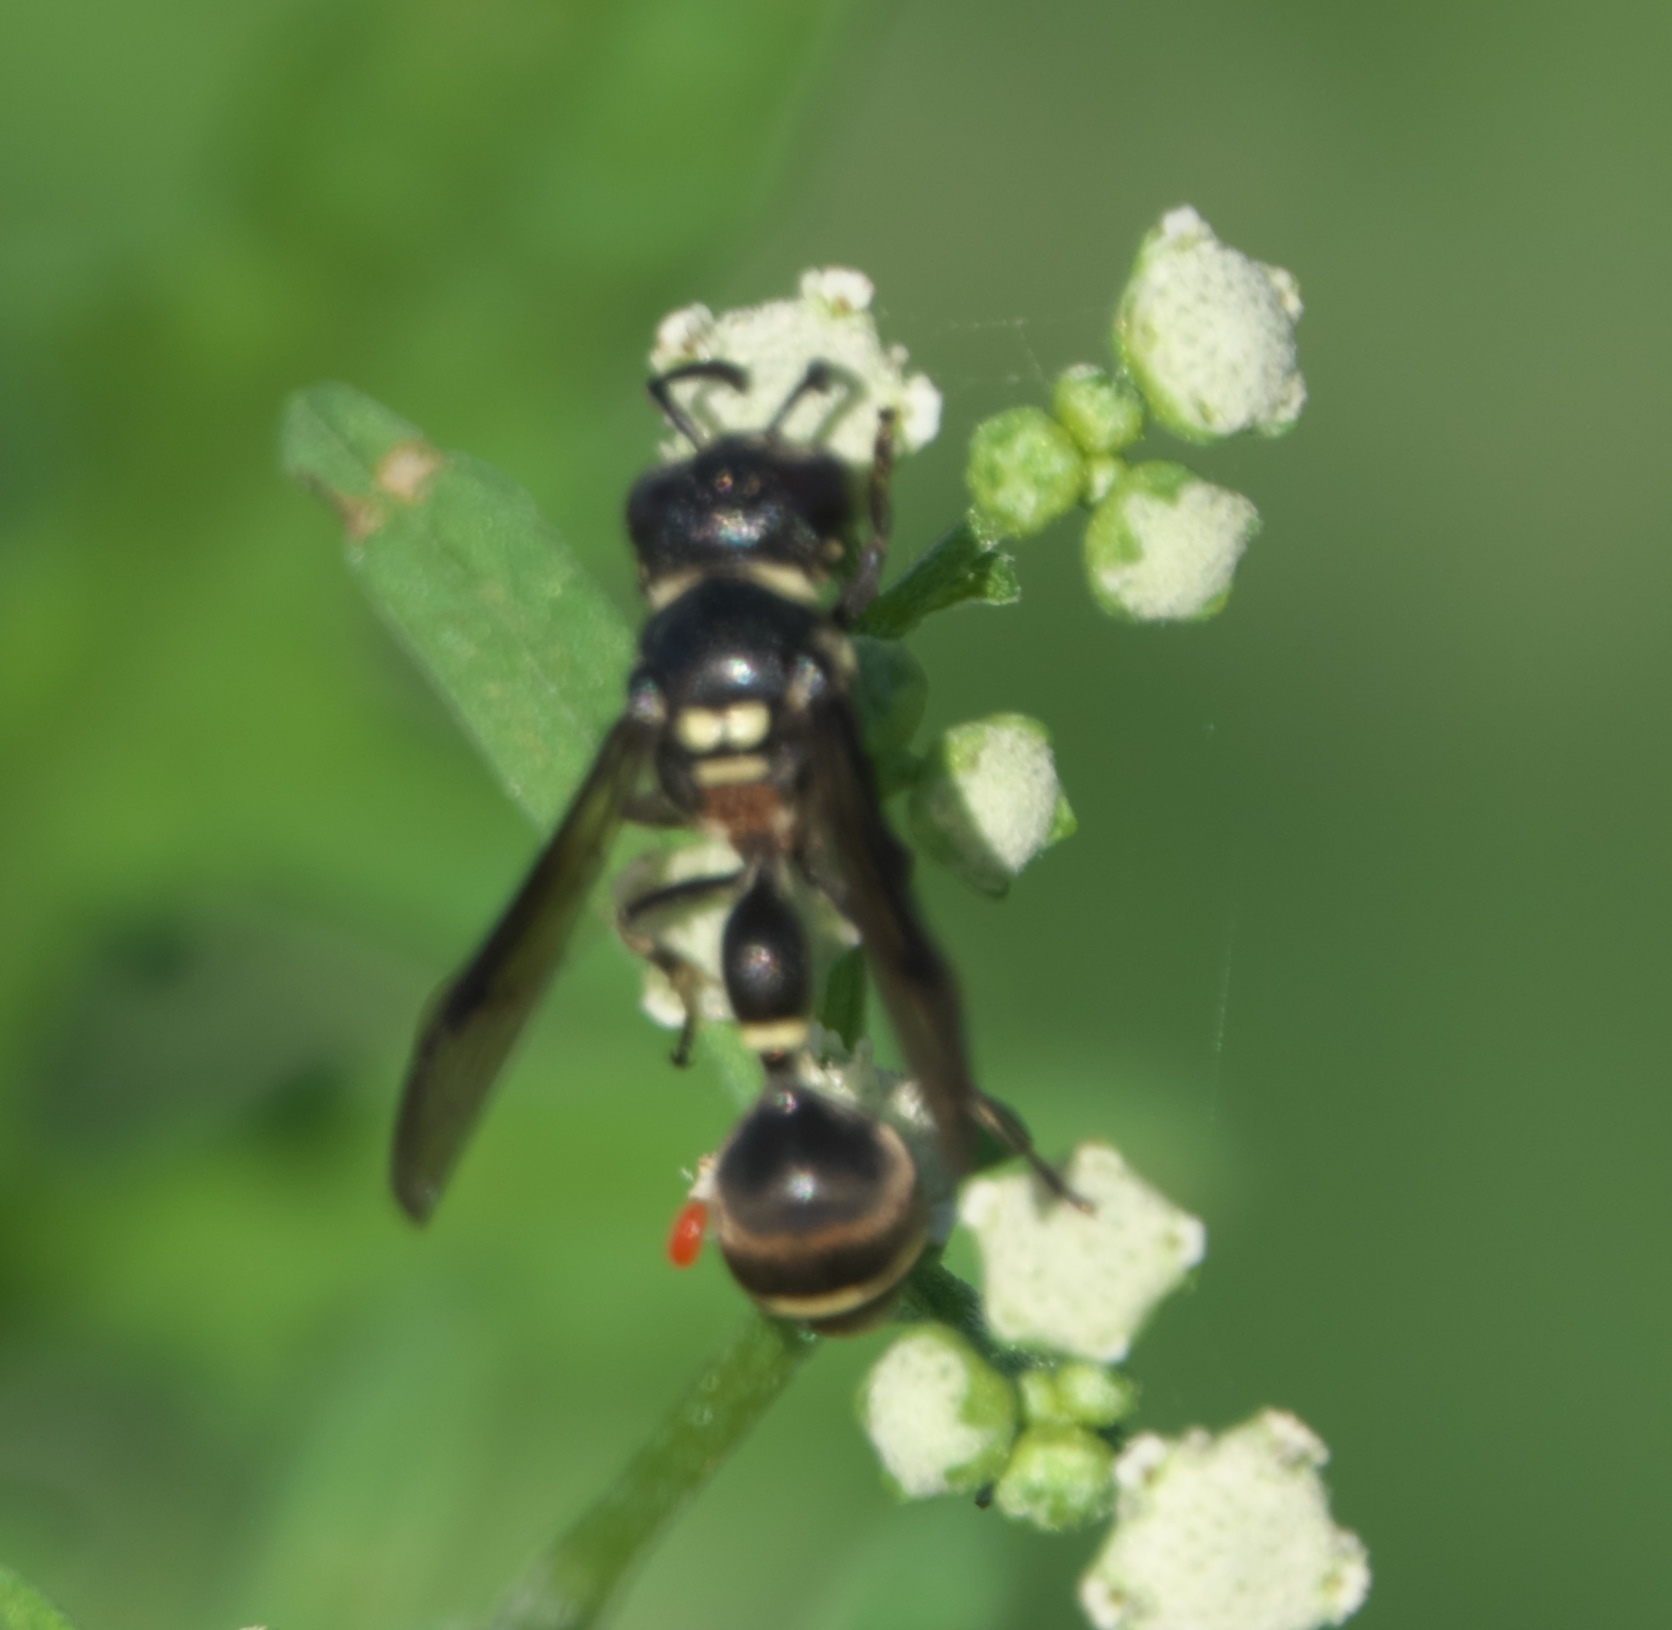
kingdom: Animalia
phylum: Arthropoda
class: Insecta
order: Hymenoptera
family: Eumenidae
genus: Zethus
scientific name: Zethus aztecus
